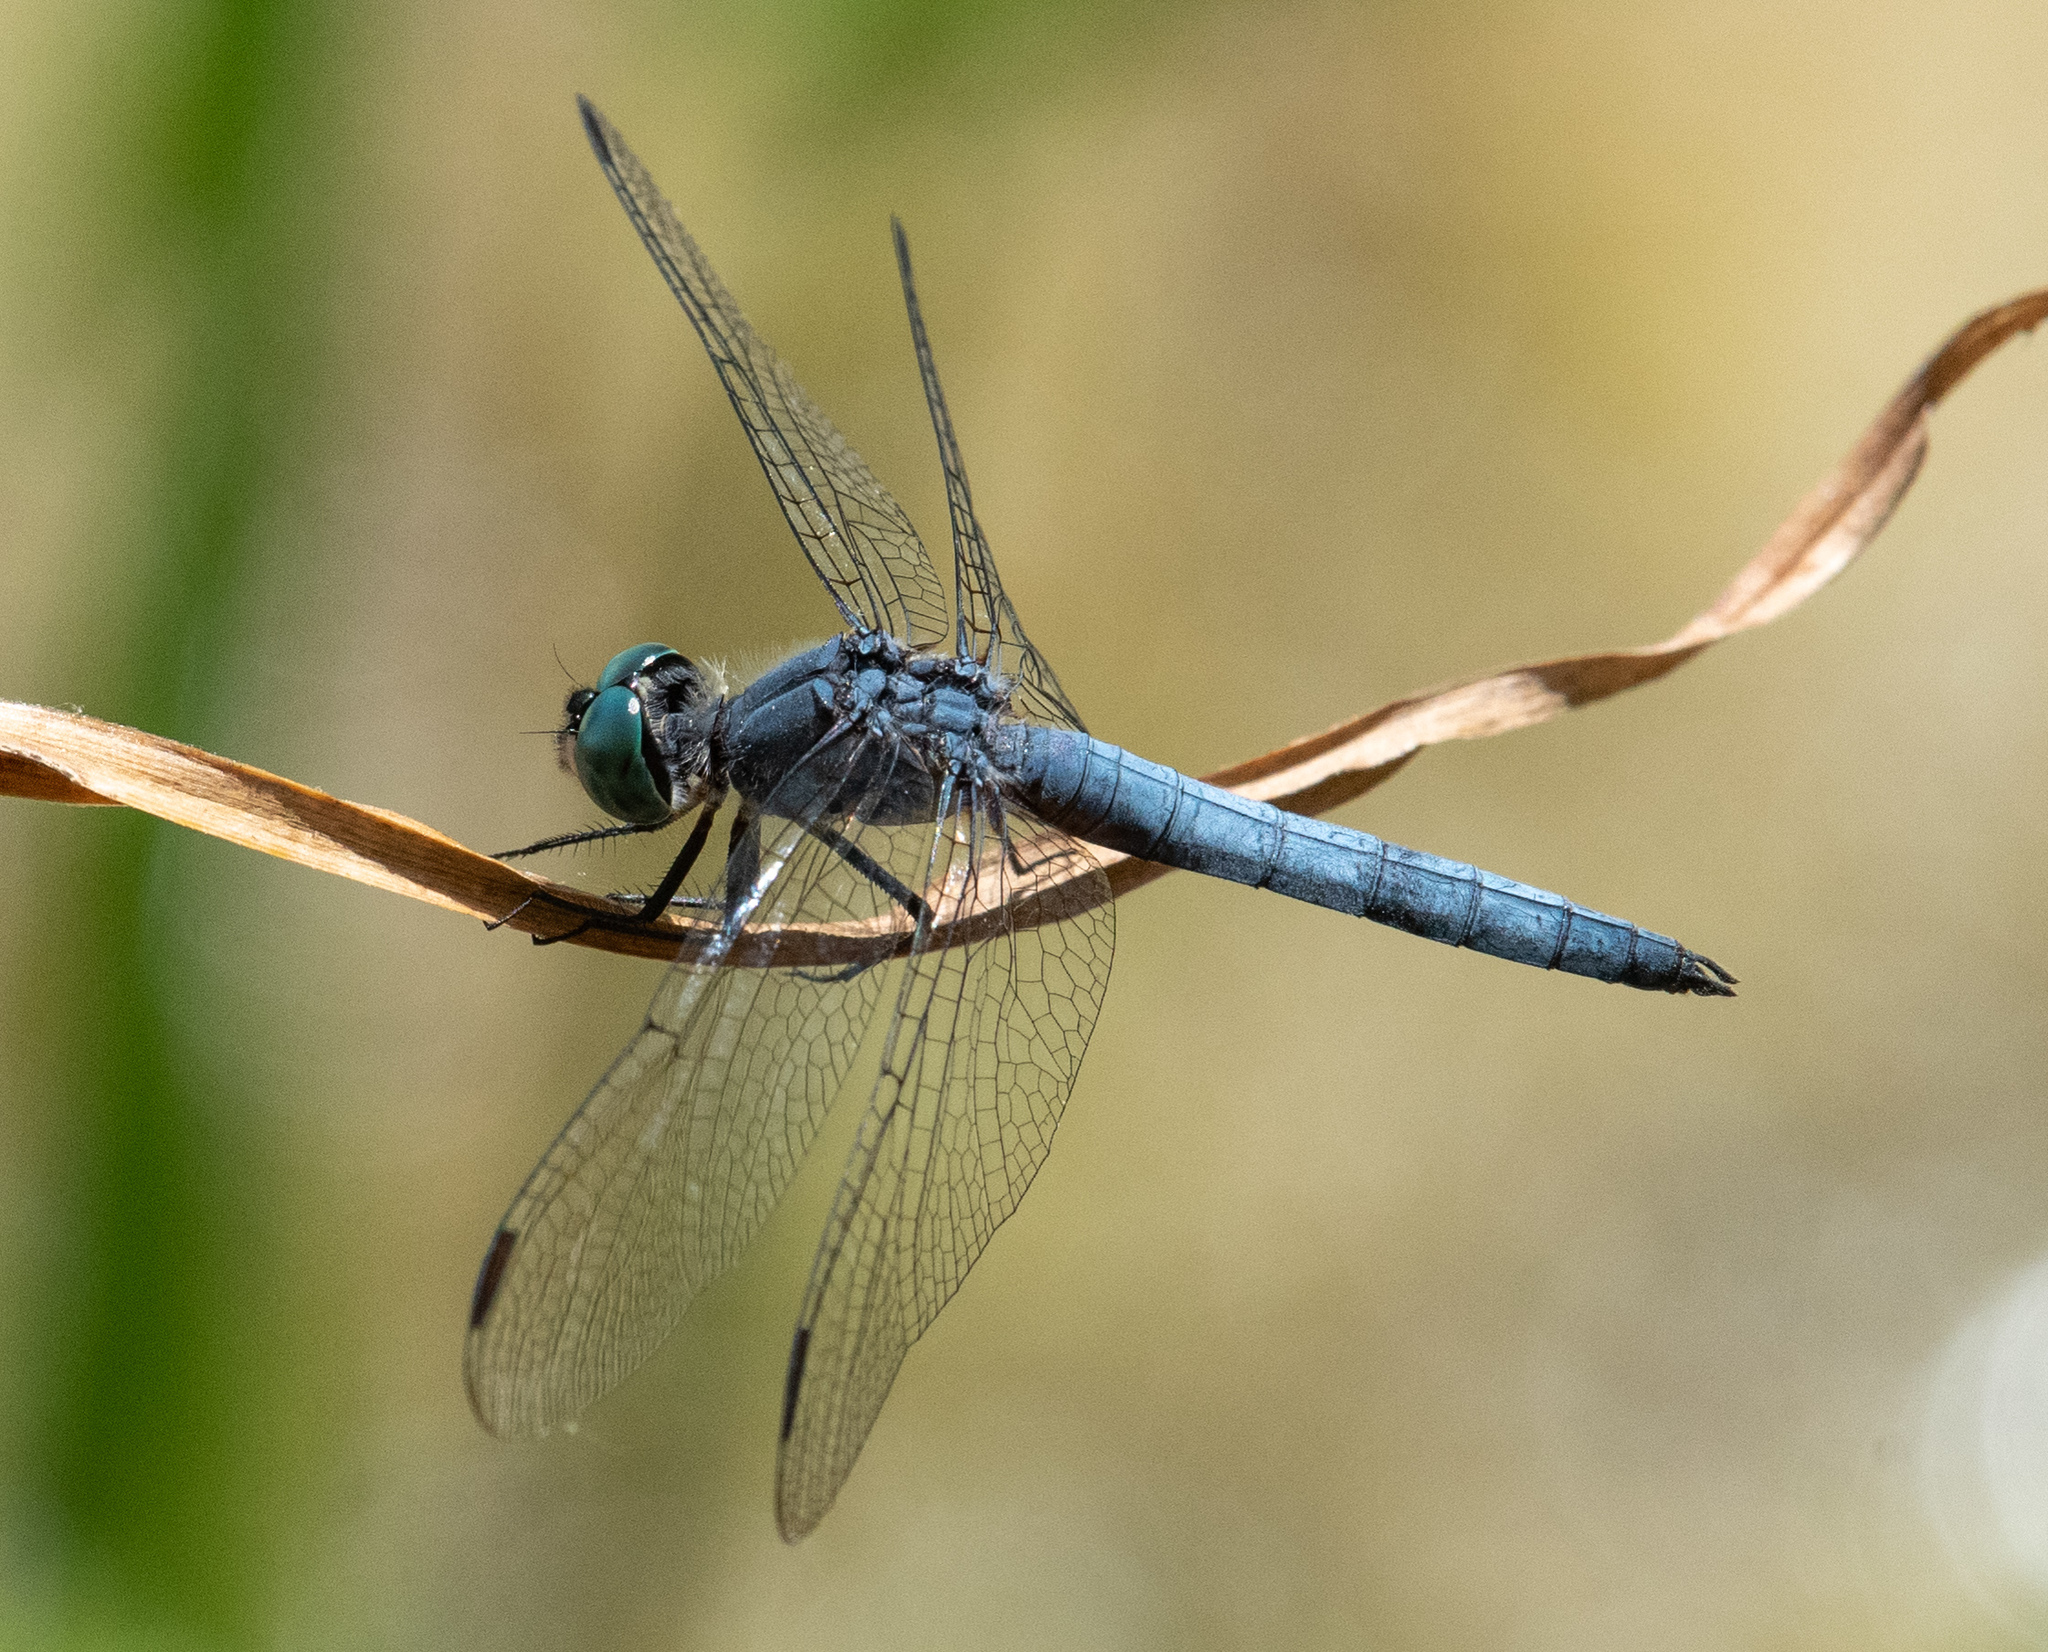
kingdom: Animalia
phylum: Arthropoda
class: Insecta
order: Odonata
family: Libellulidae
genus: Pachydiplax
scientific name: Pachydiplax longipennis
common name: Blue dasher
